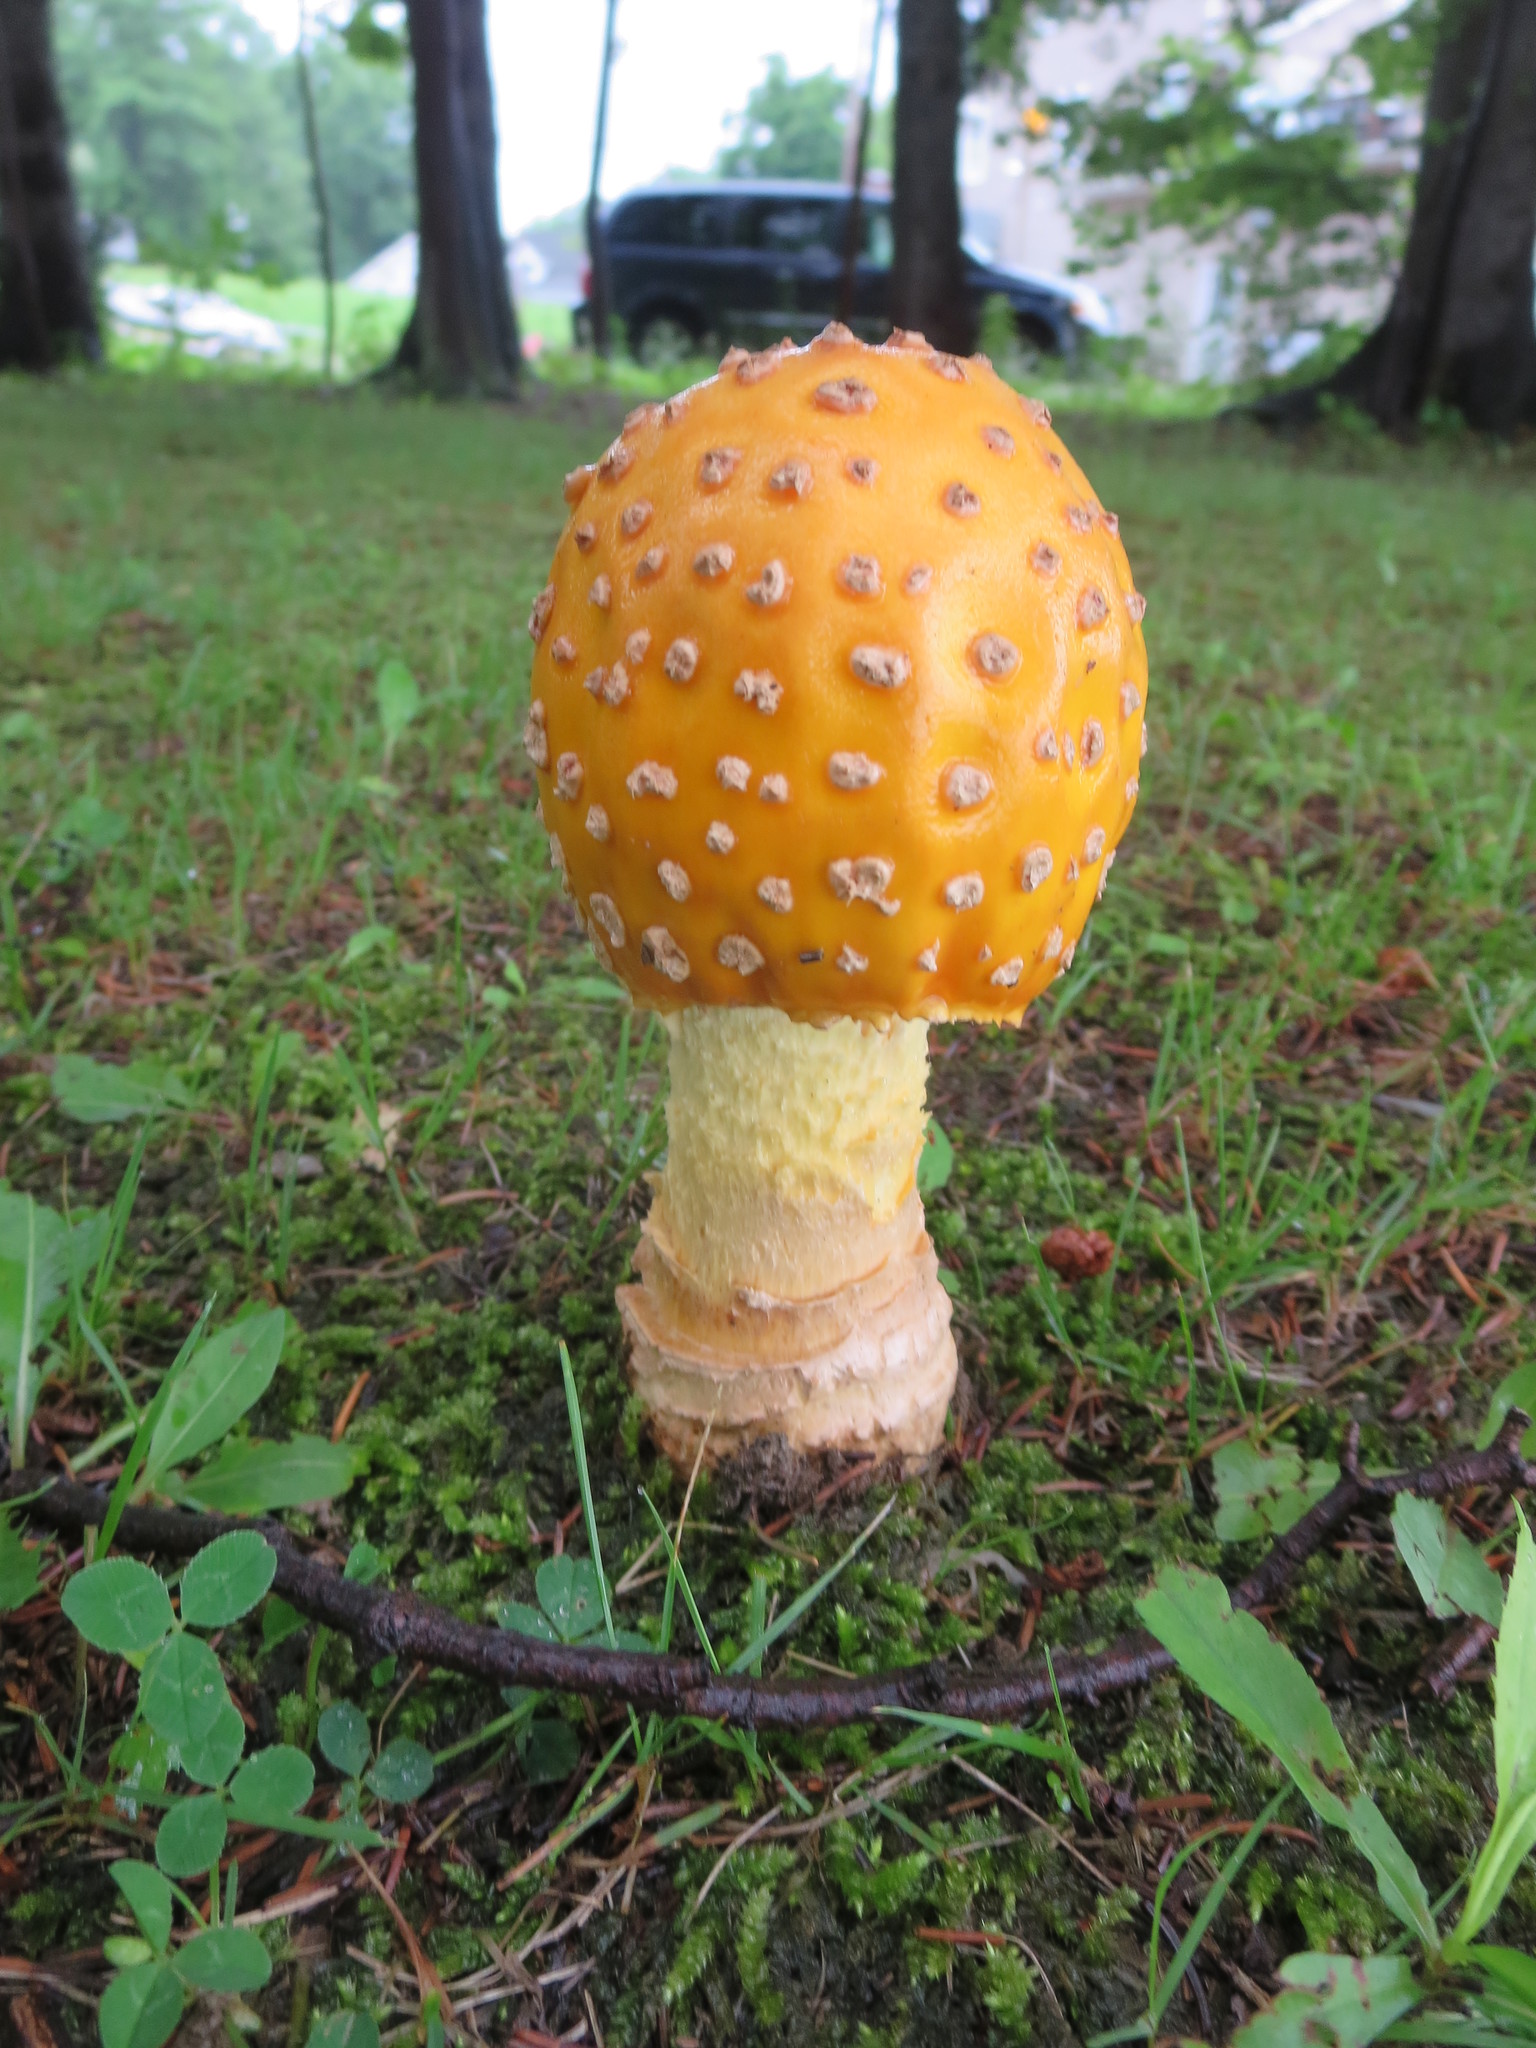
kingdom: Fungi
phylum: Basidiomycota
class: Agaricomycetes
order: Agaricales
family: Amanitaceae
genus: Amanita
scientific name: Amanita muscaria
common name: Fly agaric
